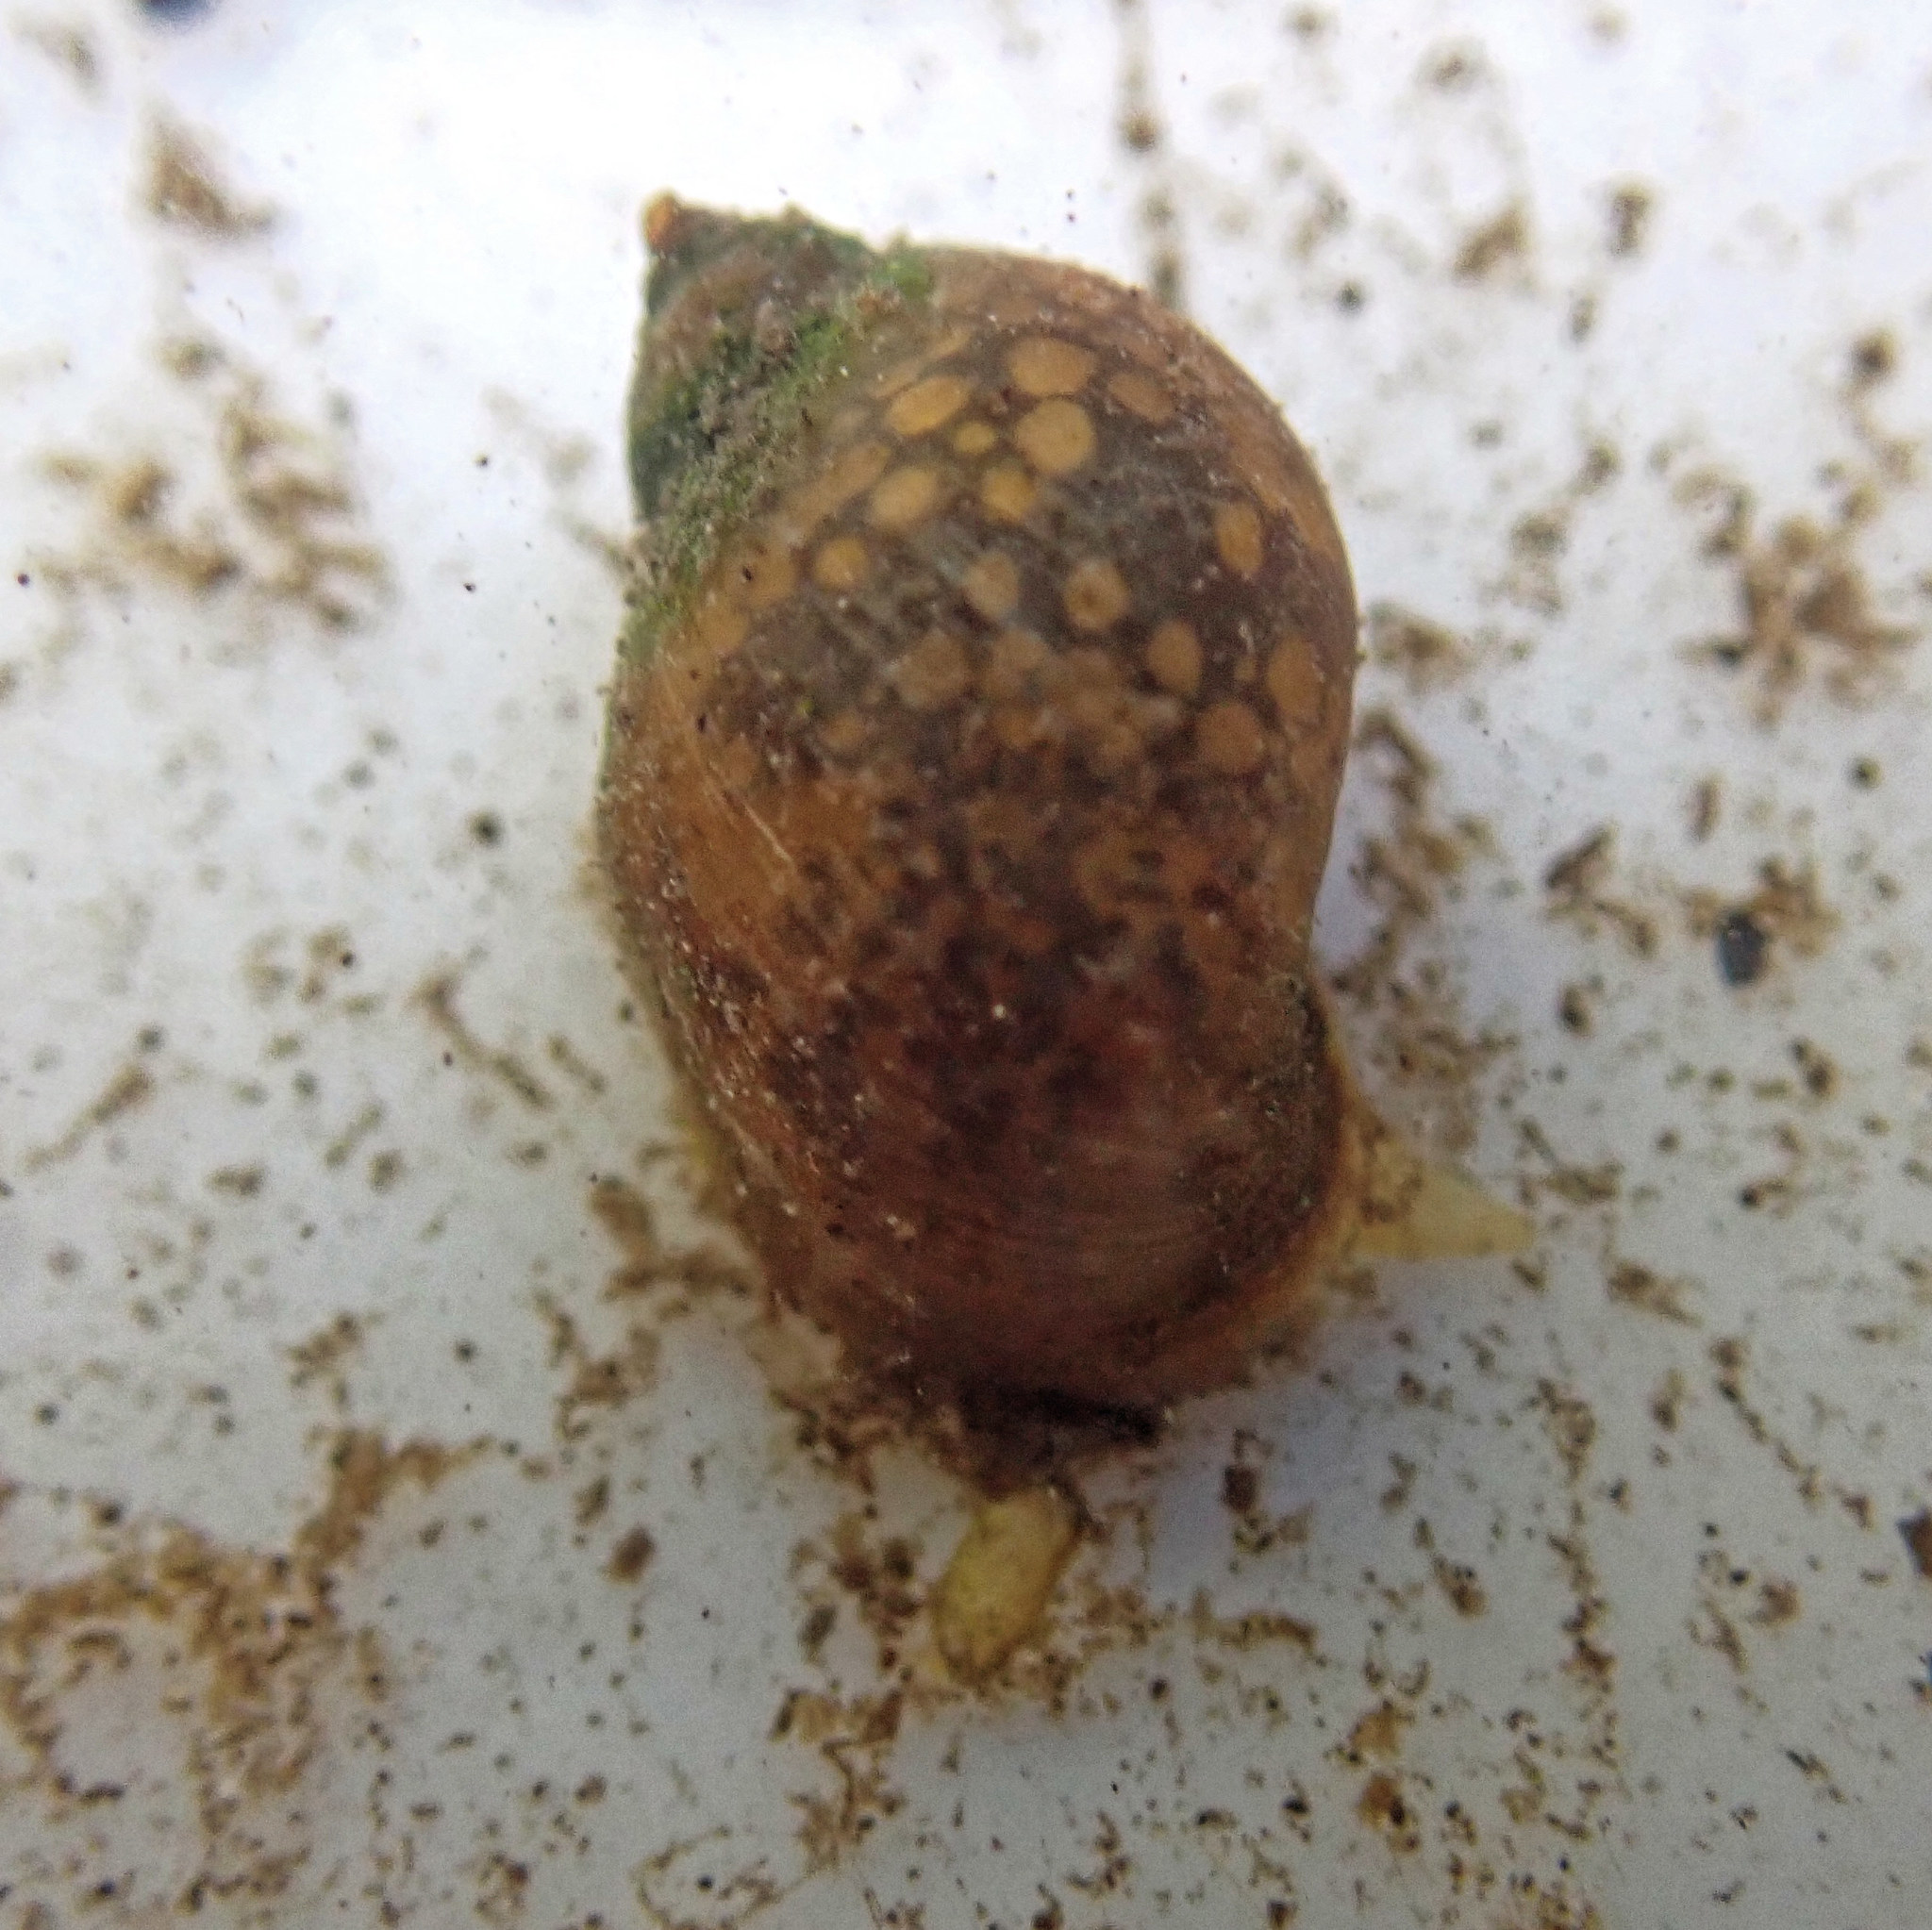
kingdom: Animalia
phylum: Mollusca
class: Gastropoda
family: Lymnaeidae
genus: Ampullaceana
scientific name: Ampullaceana balthica
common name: Wandering pond snail
